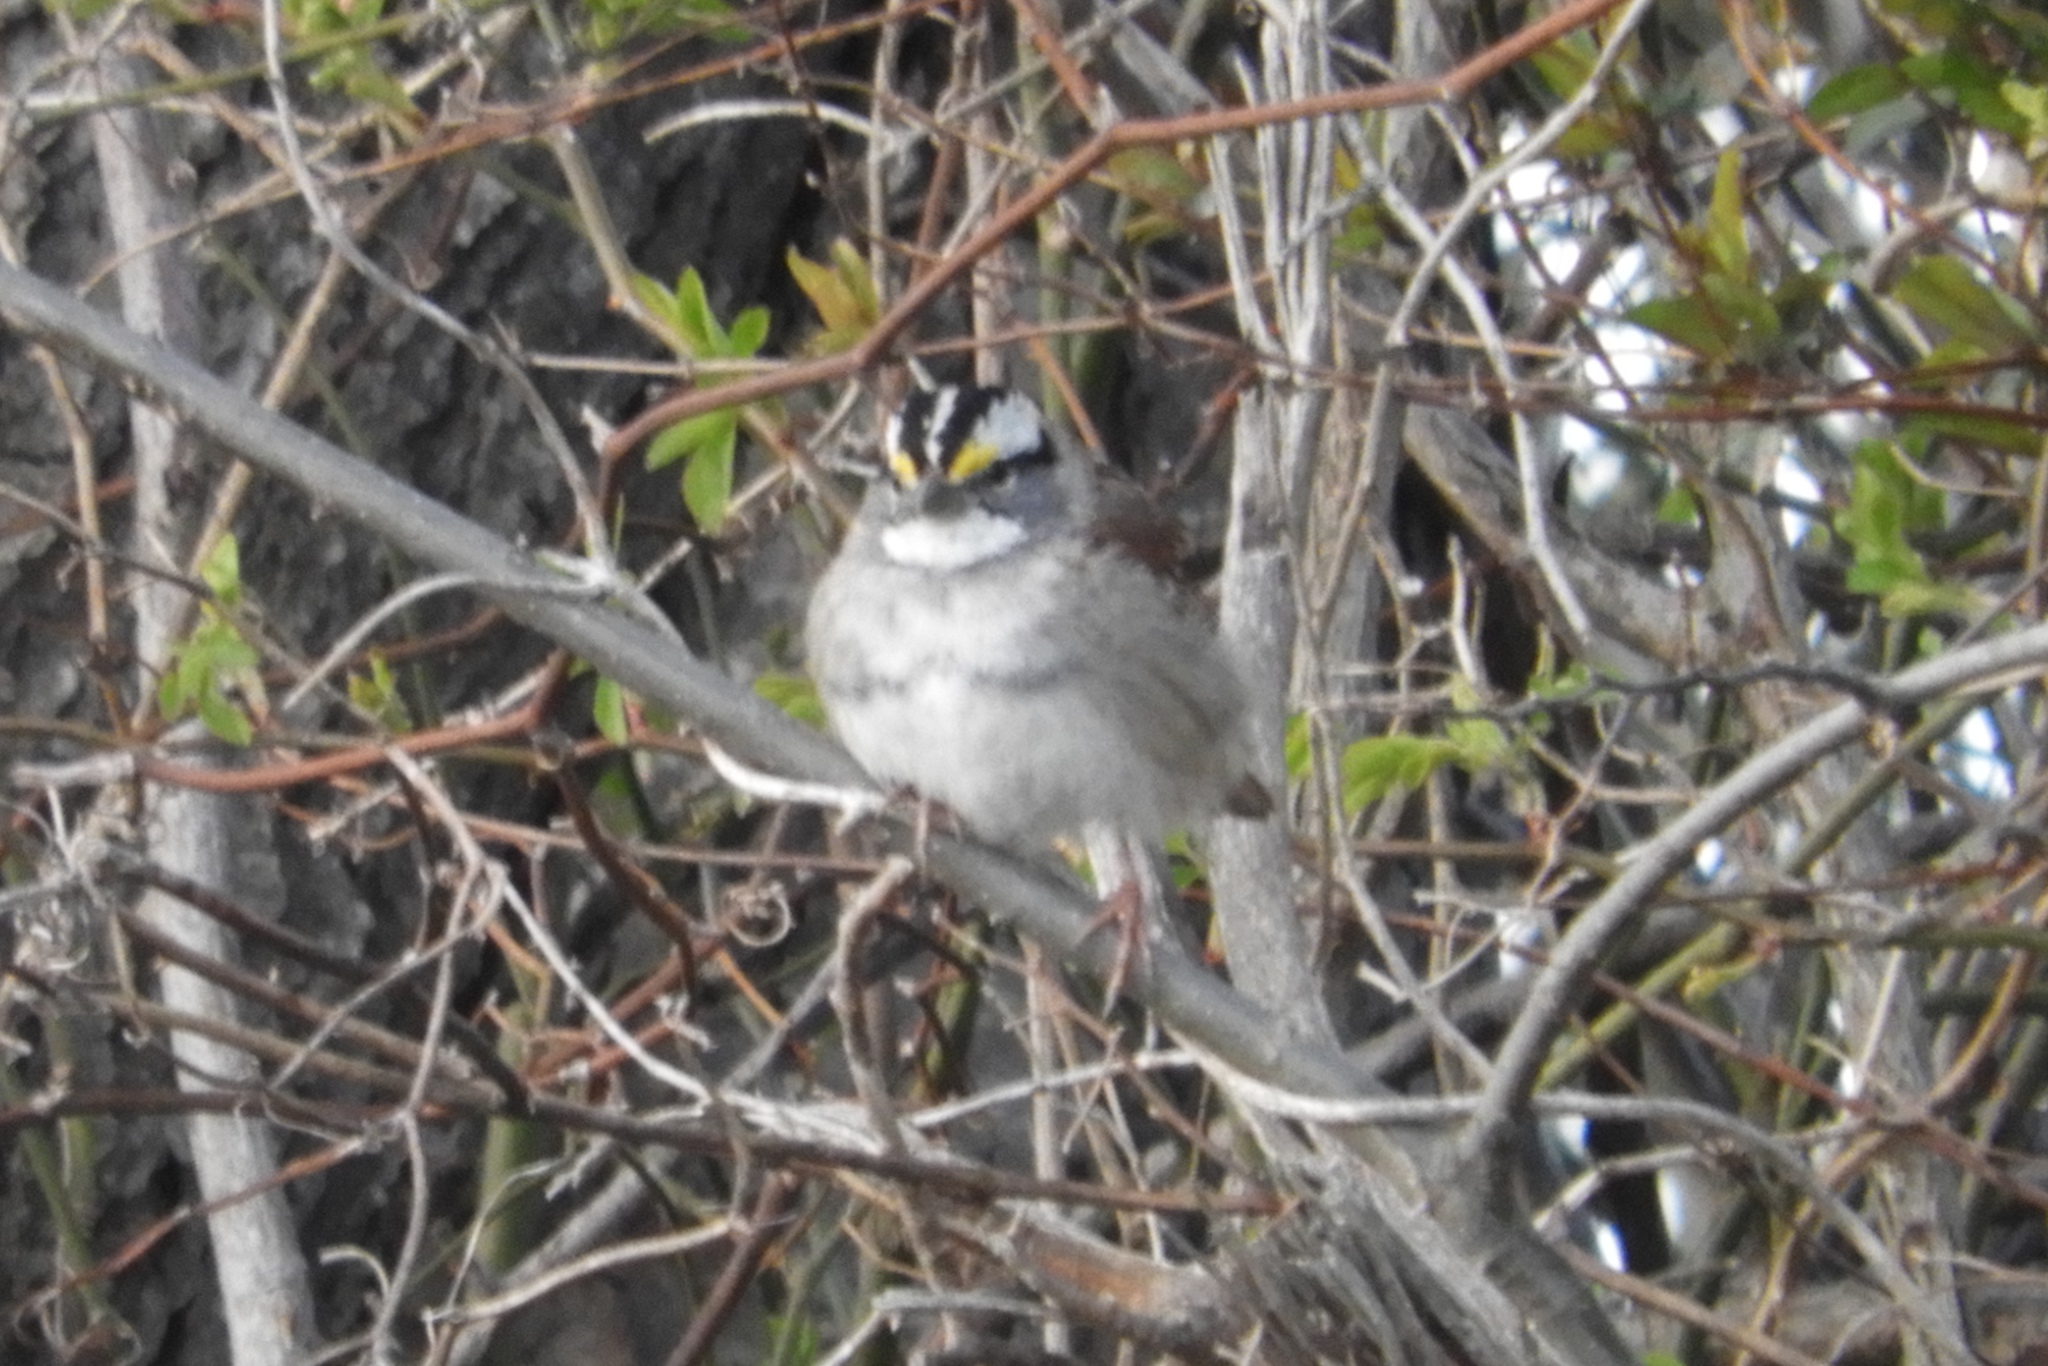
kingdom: Animalia
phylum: Chordata
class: Aves
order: Passeriformes
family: Passerellidae
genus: Zonotrichia
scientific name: Zonotrichia albicollis
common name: White-throated sparrow
